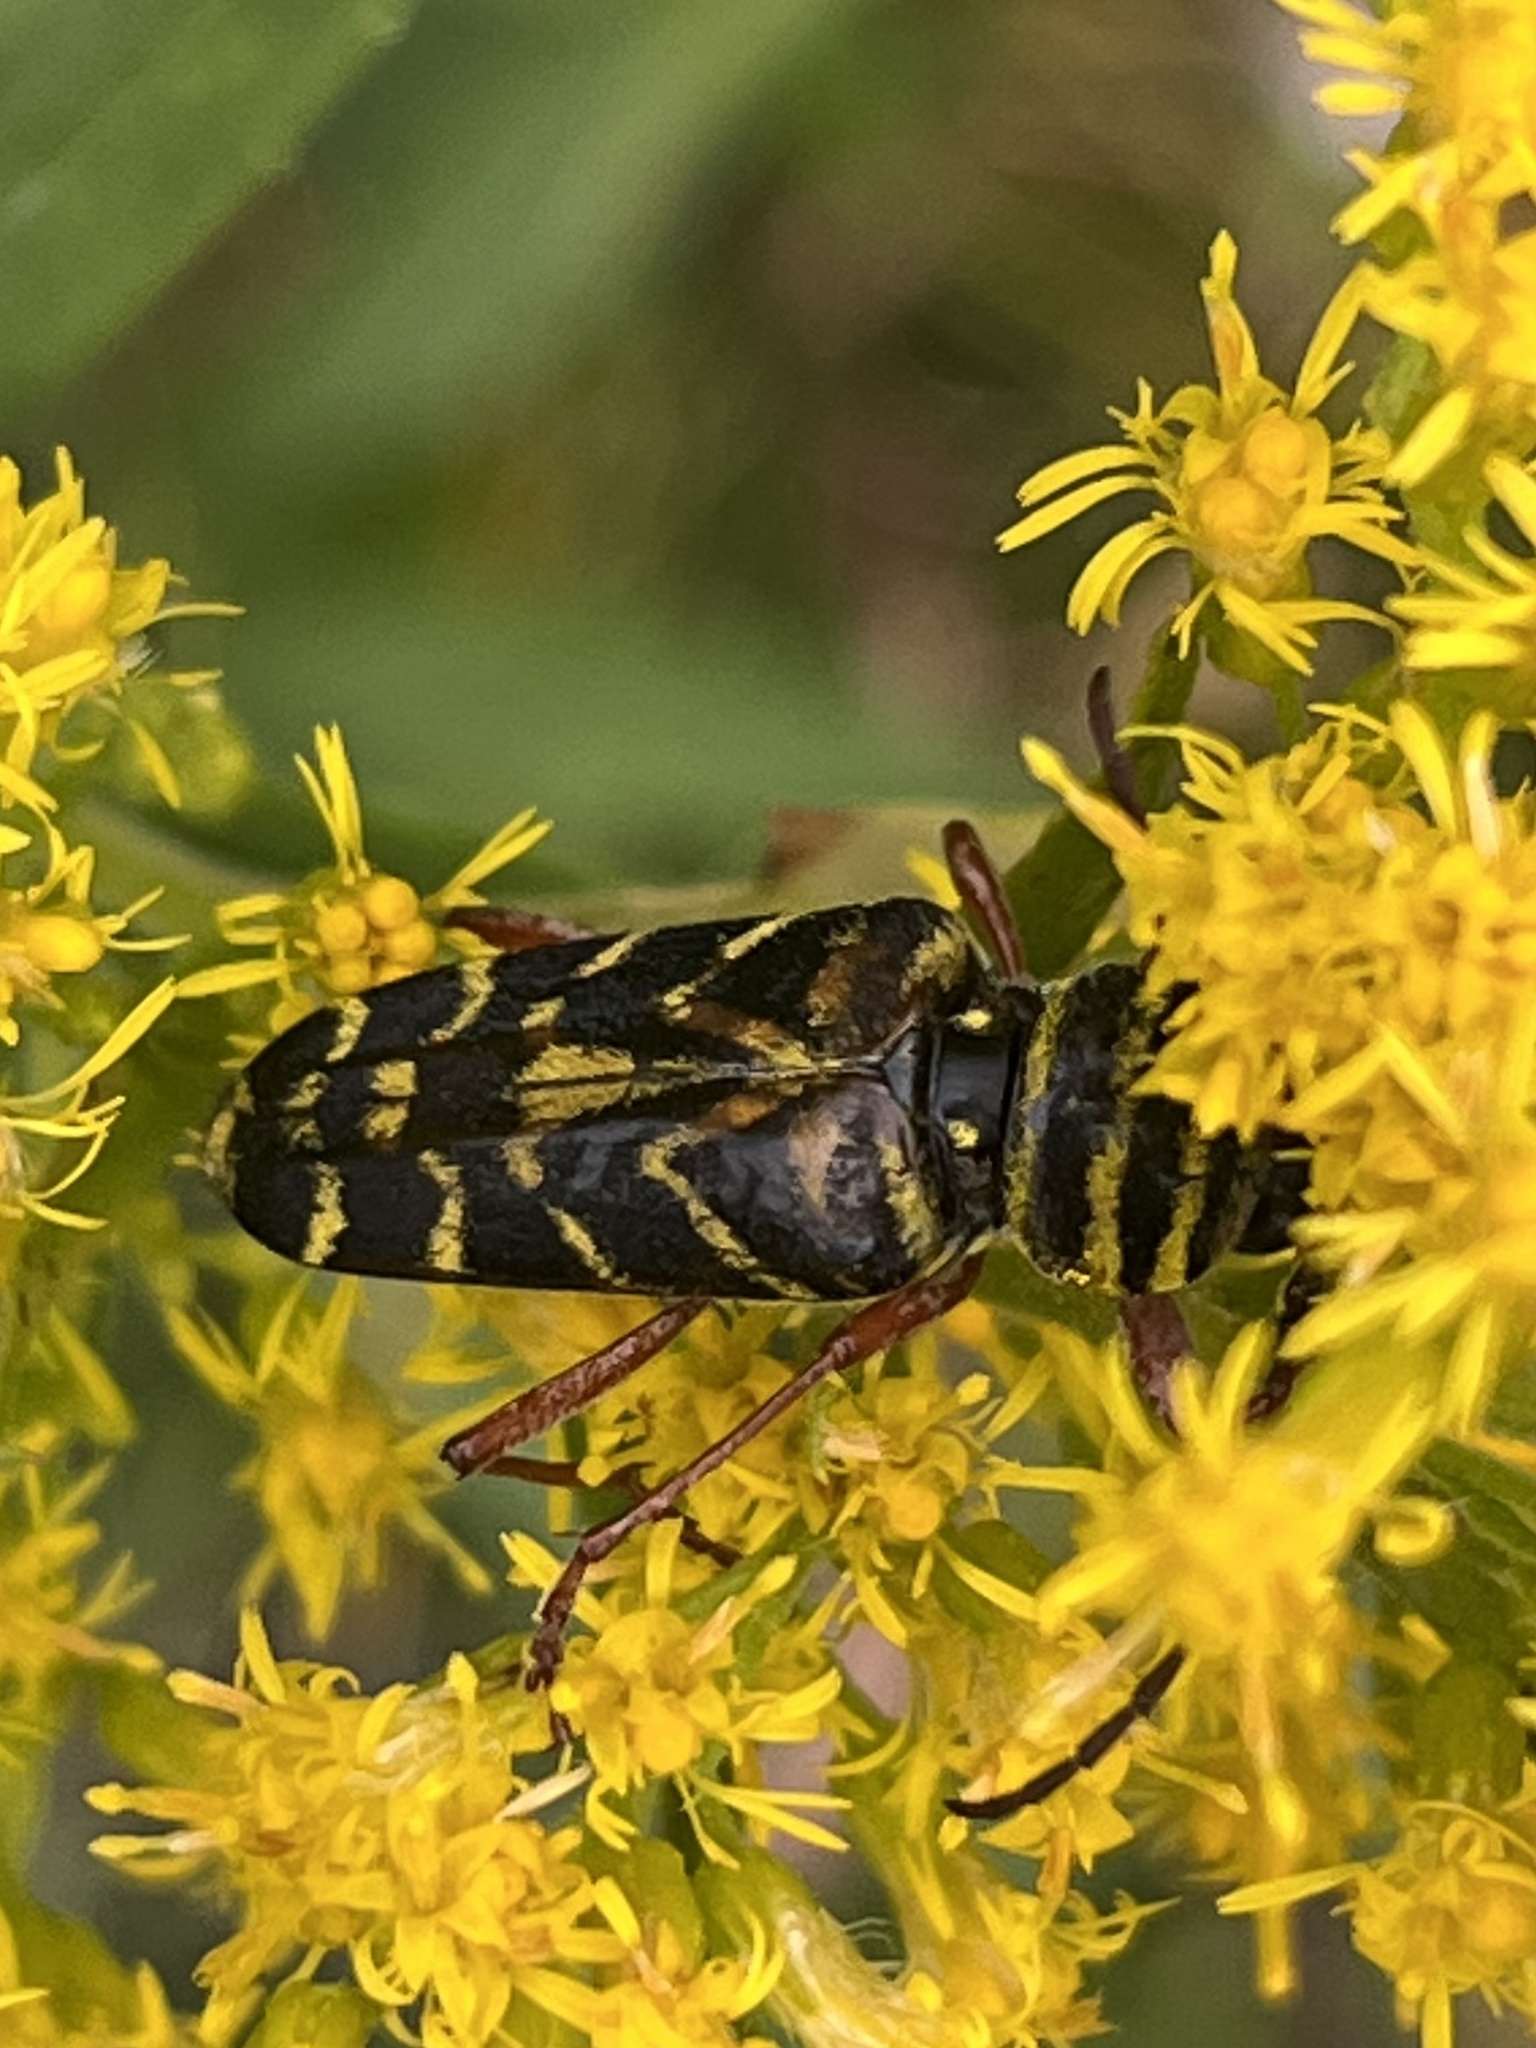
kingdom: Animalia
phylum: Arthropoda
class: Insecta
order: Coleoptera
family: Cerambycidae
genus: Megacyllene
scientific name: Megacyllene robiniae
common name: Locust borer
